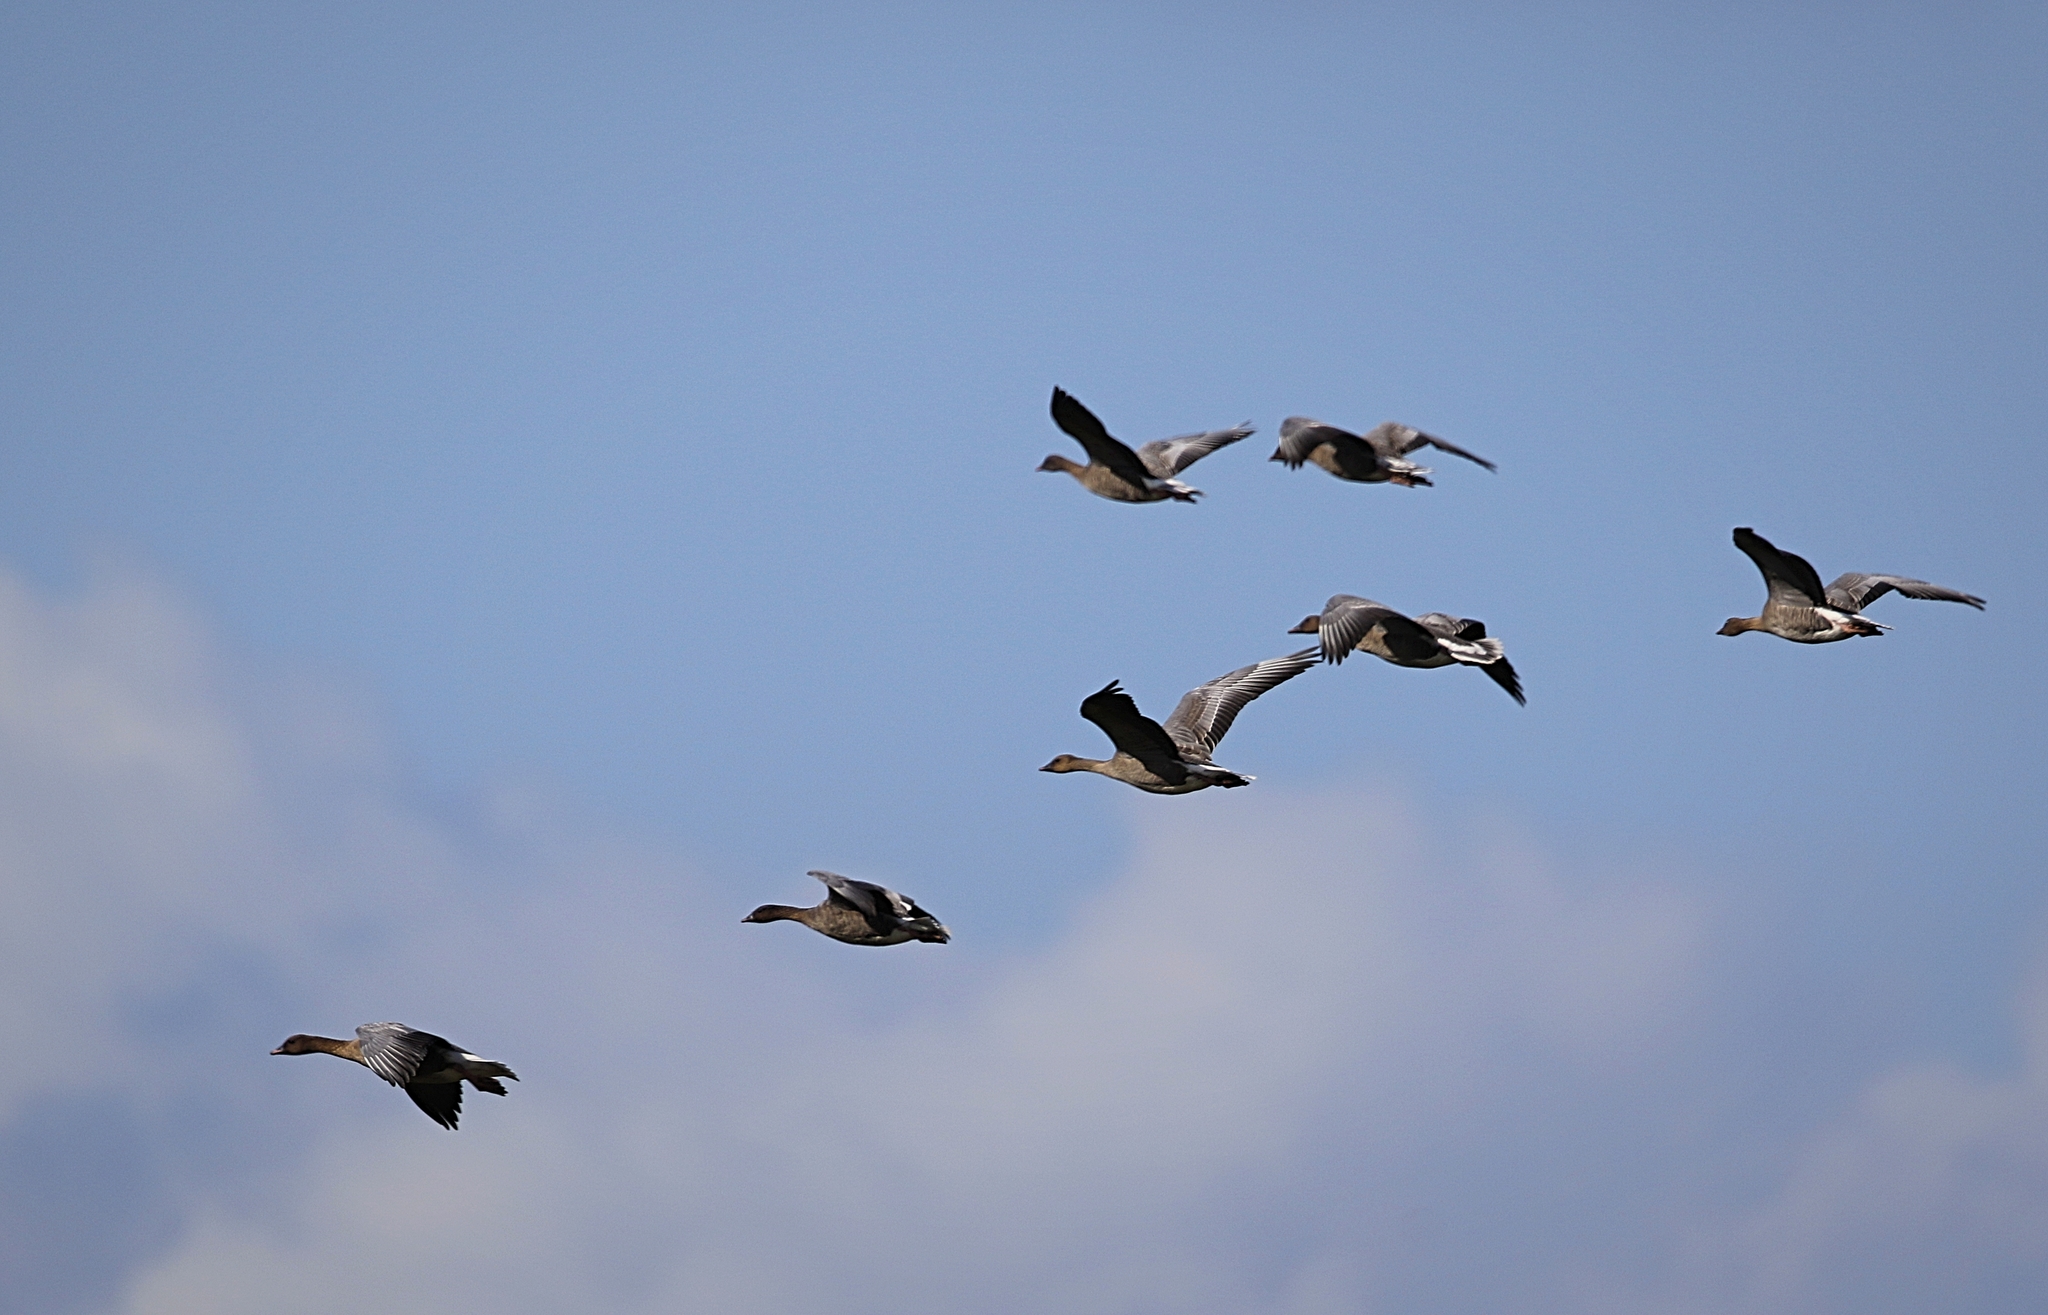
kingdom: Animalia
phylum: Chordata
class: Aves
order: Anseriformes
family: Anatidae
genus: Anser
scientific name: Anser brachyrhynchus
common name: Pink-footed goose
